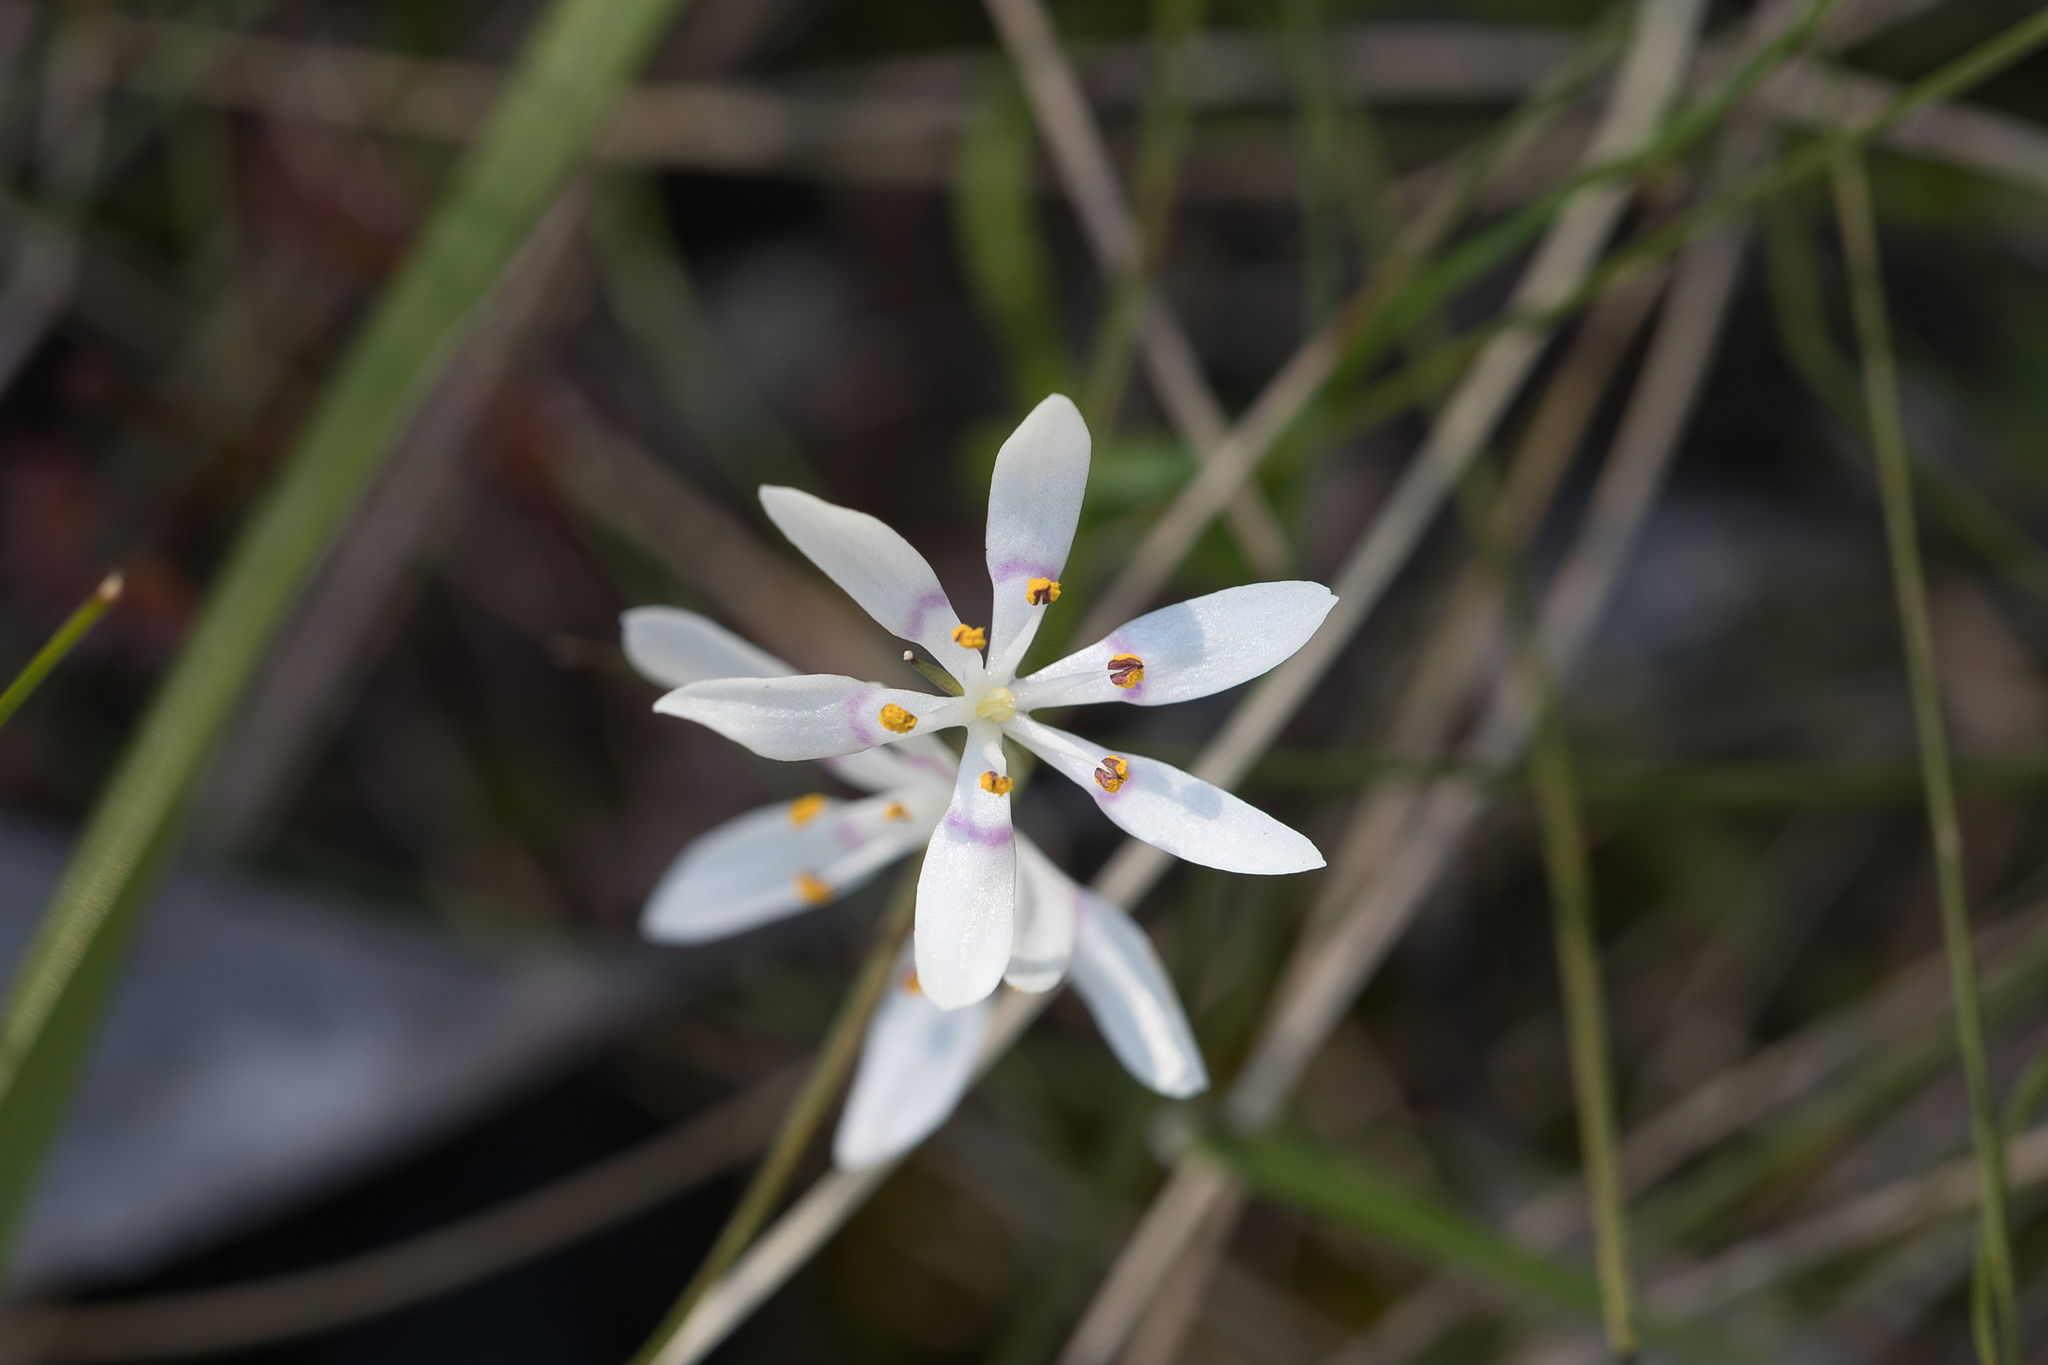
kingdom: Plantae
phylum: Tracheophyta
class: Liliopsida
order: Liliales
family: Colchicaceae
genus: Wurmbea
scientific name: Wurmbea dioica
